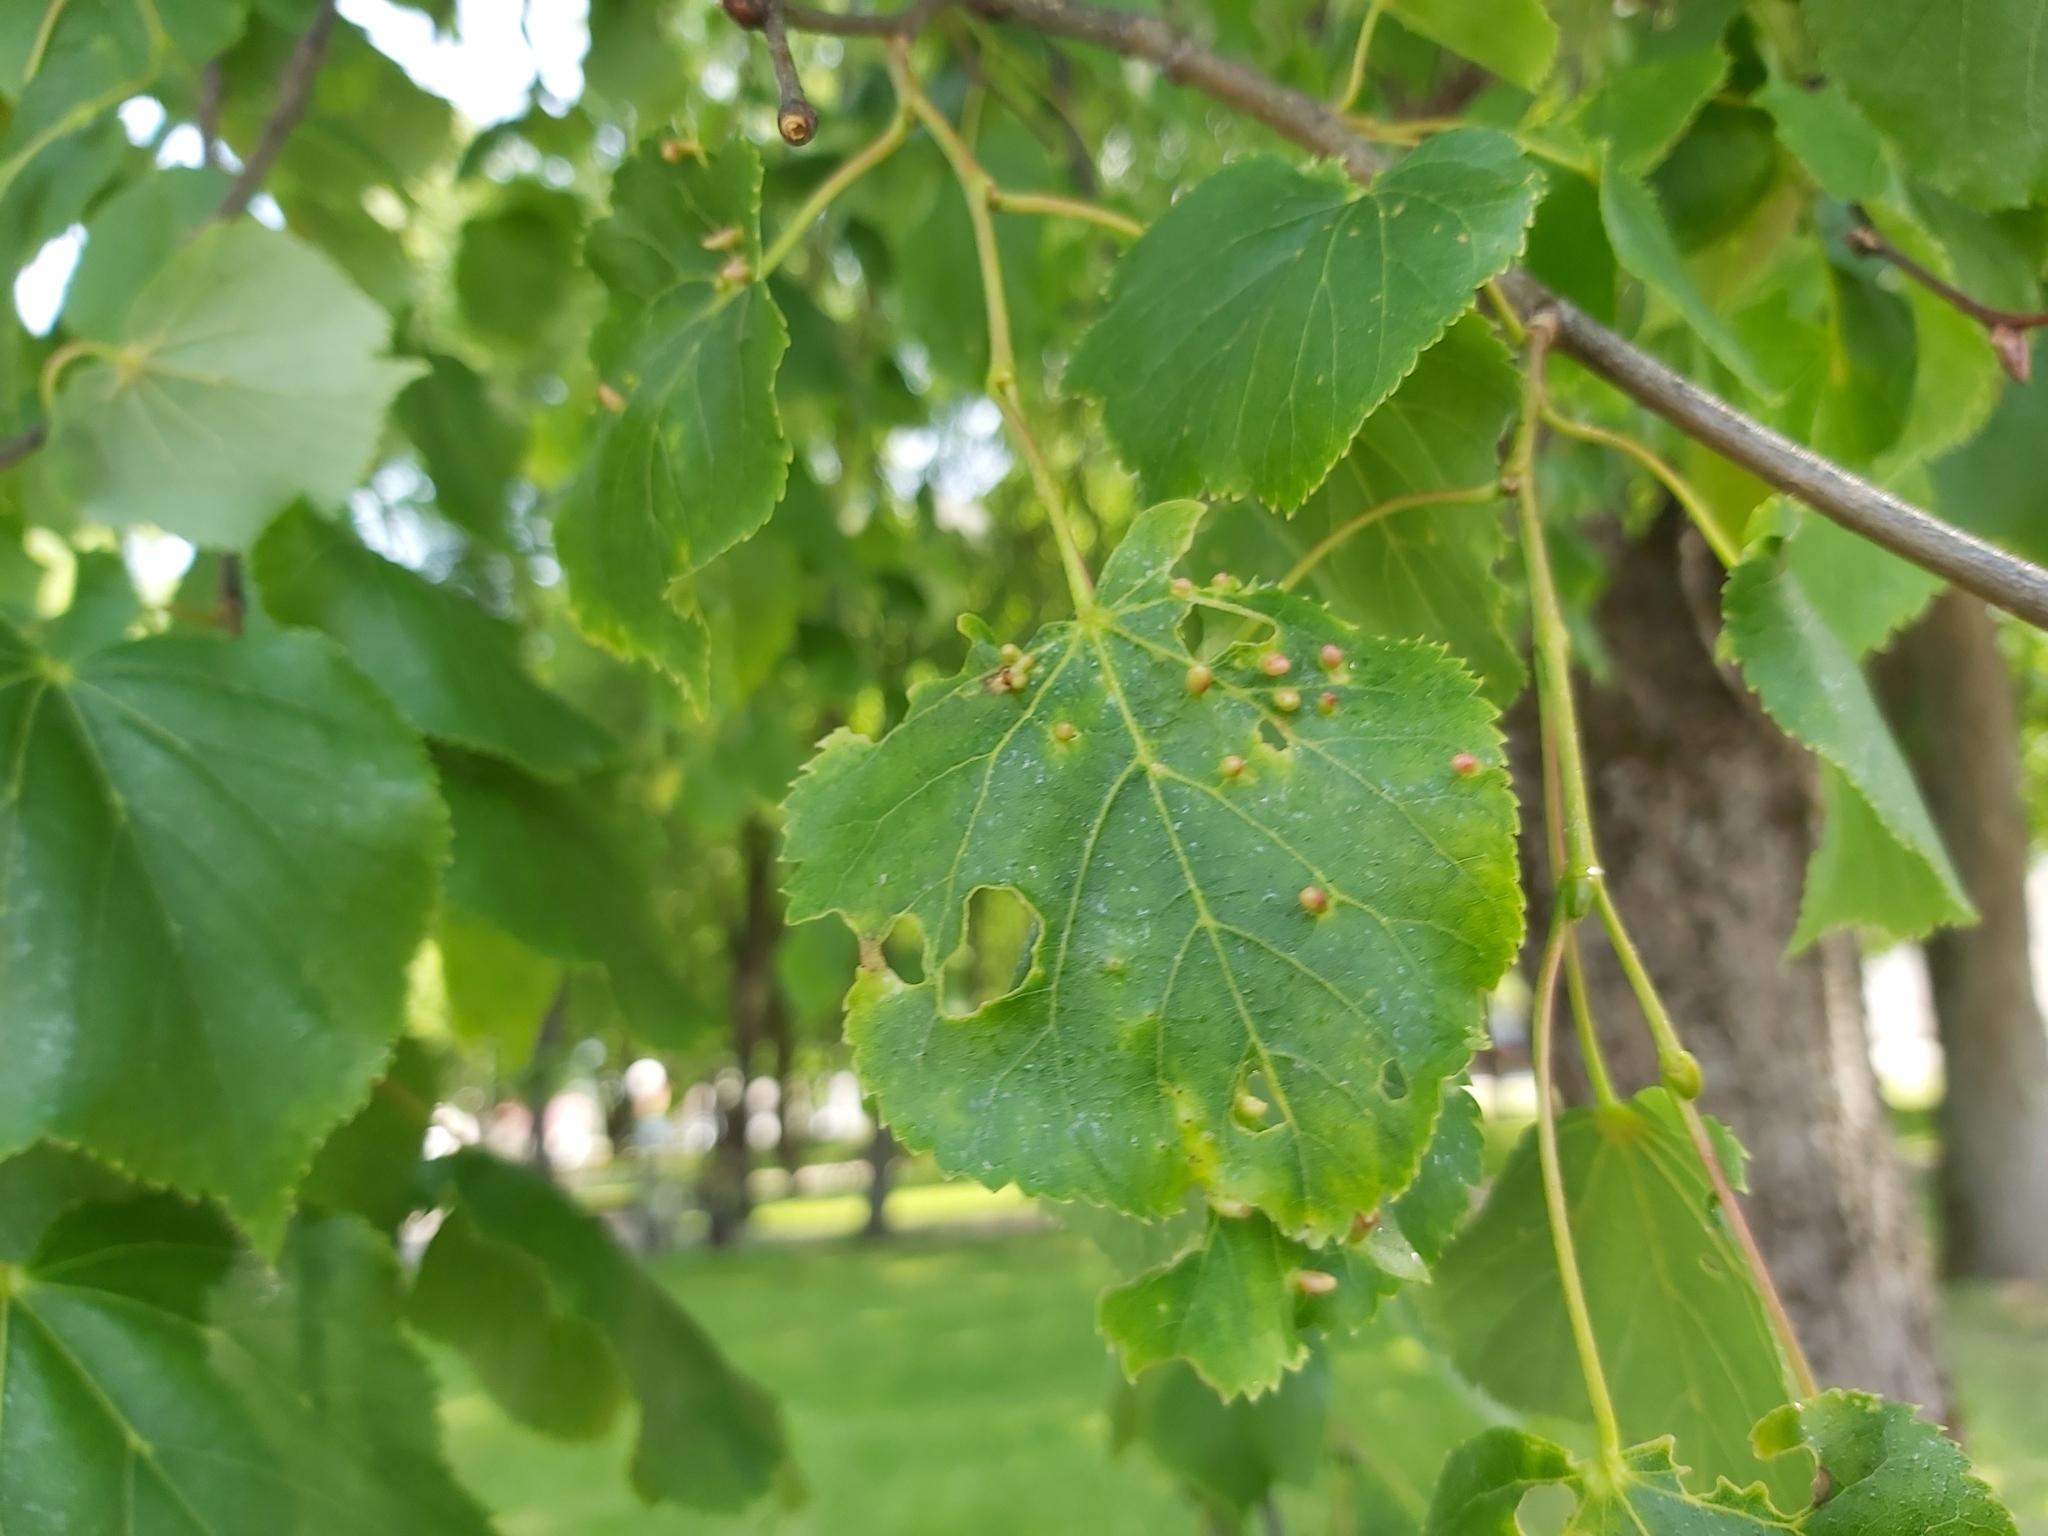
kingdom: Animalia
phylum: Arthropoda
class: Arachnida
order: Trombidiformes
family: Eriophyidae
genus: Eriophyes
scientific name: Eriophyes tiliae
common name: Red nail gall mite
